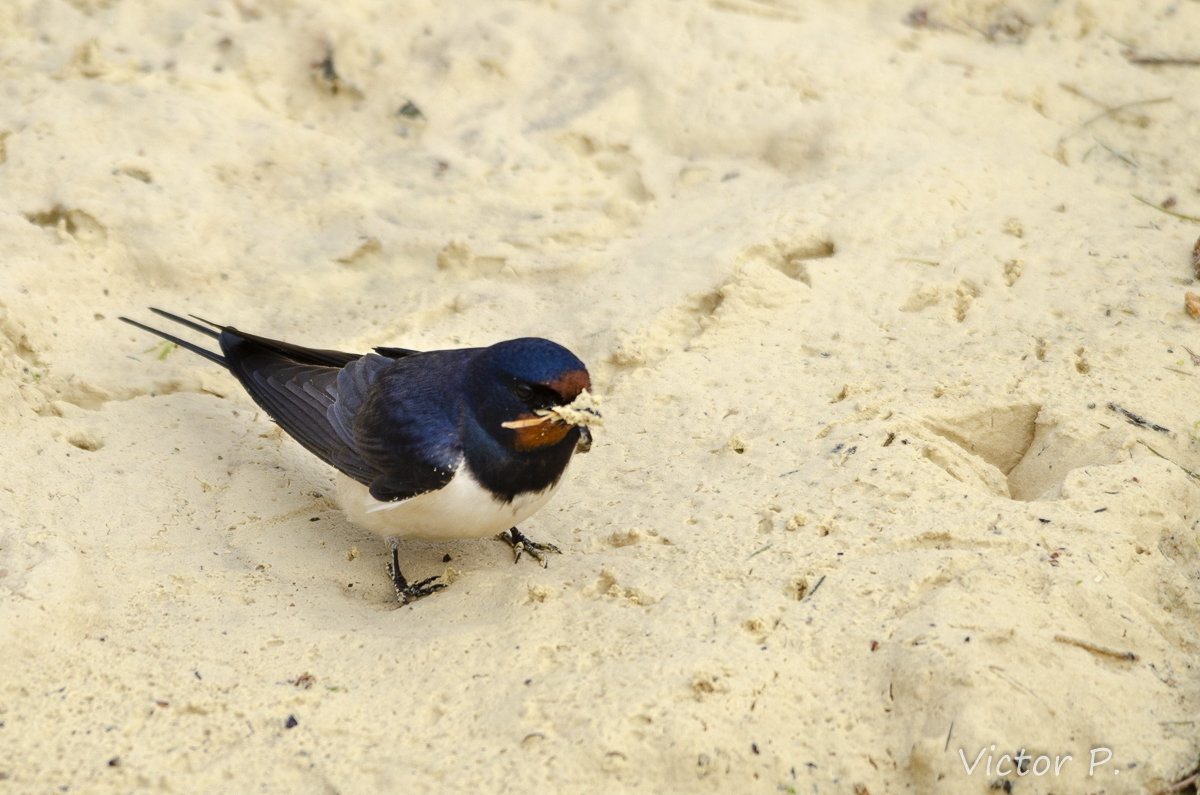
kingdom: Animalia
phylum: Chordata
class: Aves
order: Passeriformes
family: Hirundinidae
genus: Hirundo
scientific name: Hirundo rustica
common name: Barn swallow
